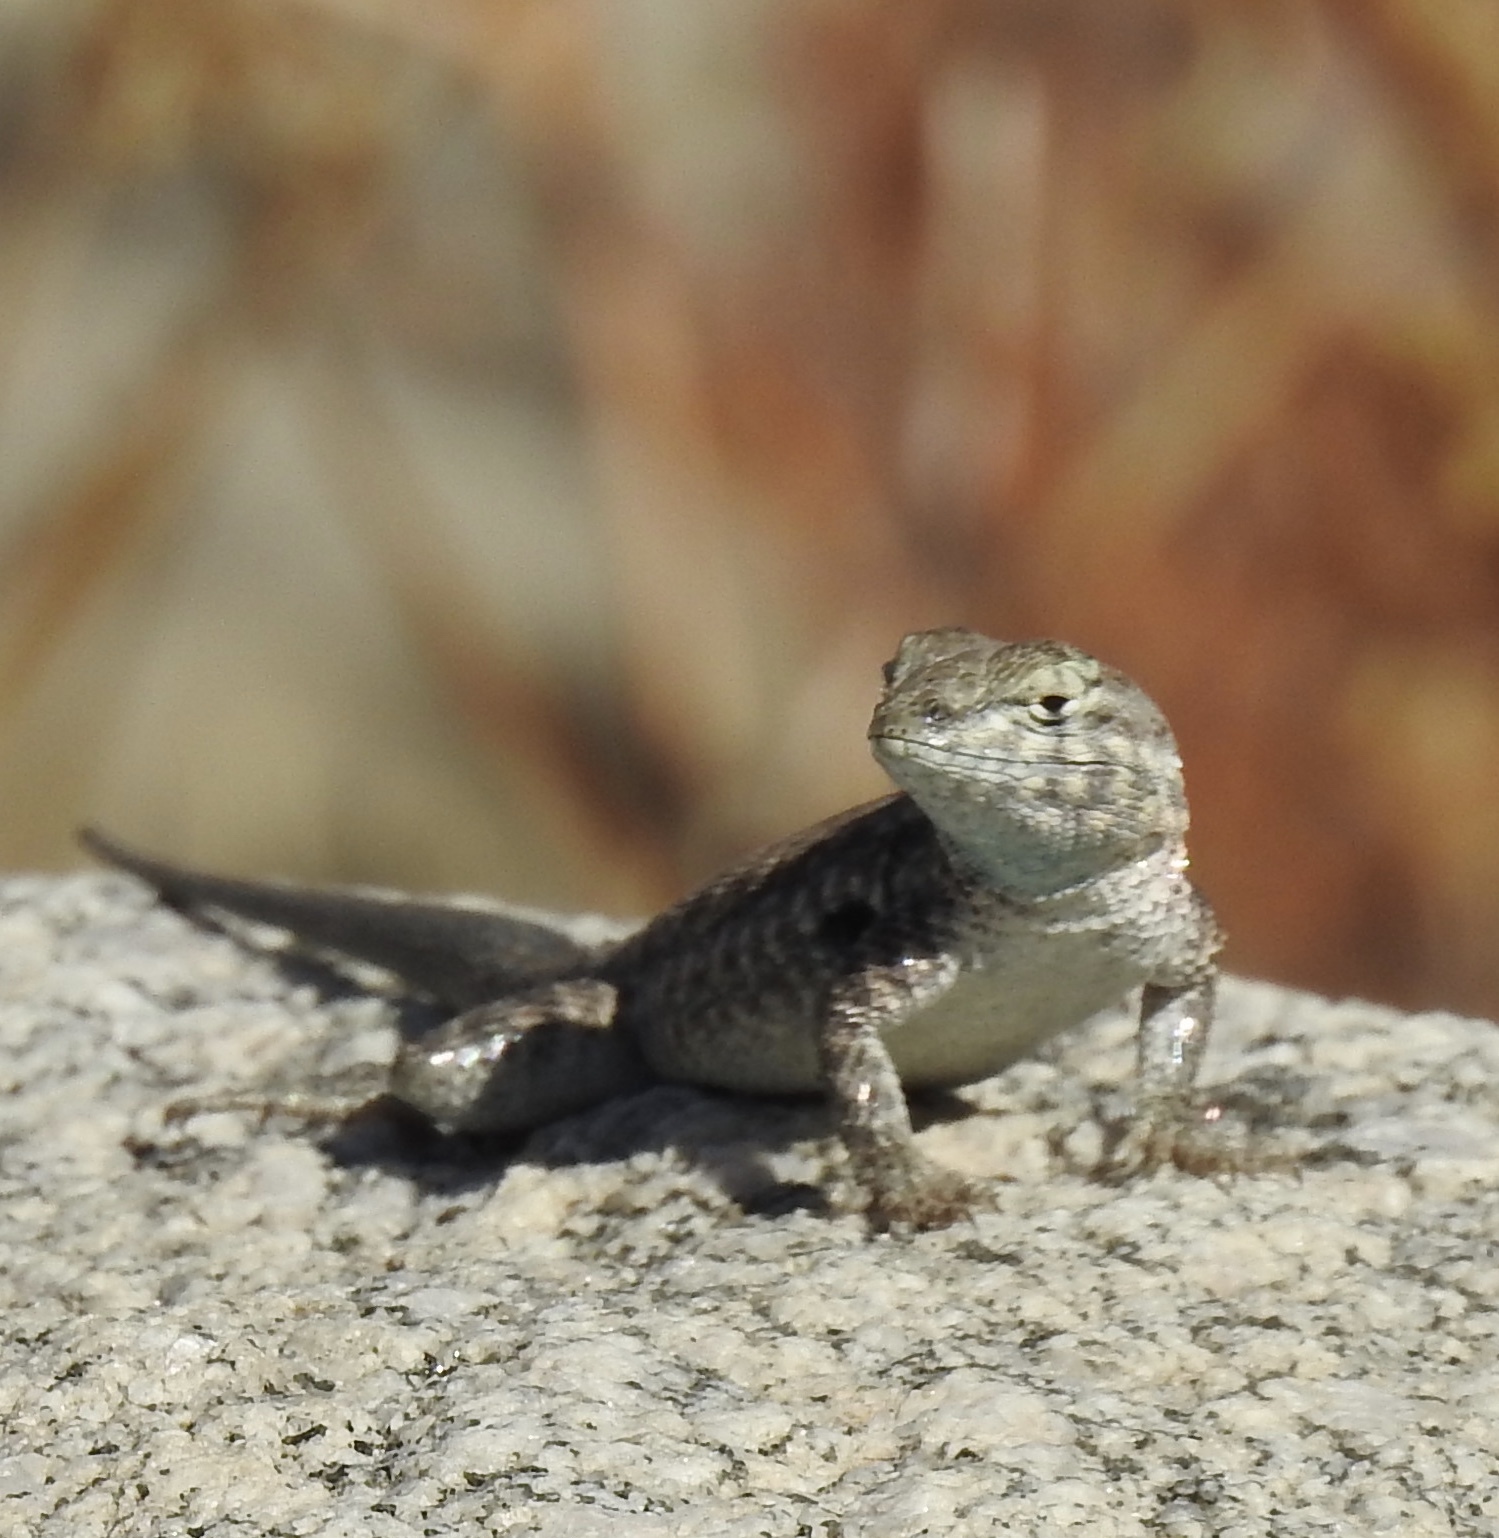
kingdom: Animalia
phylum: Chordata
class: Squamata
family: Phrynosomatidae
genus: Uta
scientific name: Uta stansburiana
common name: Side-blotched lizard
